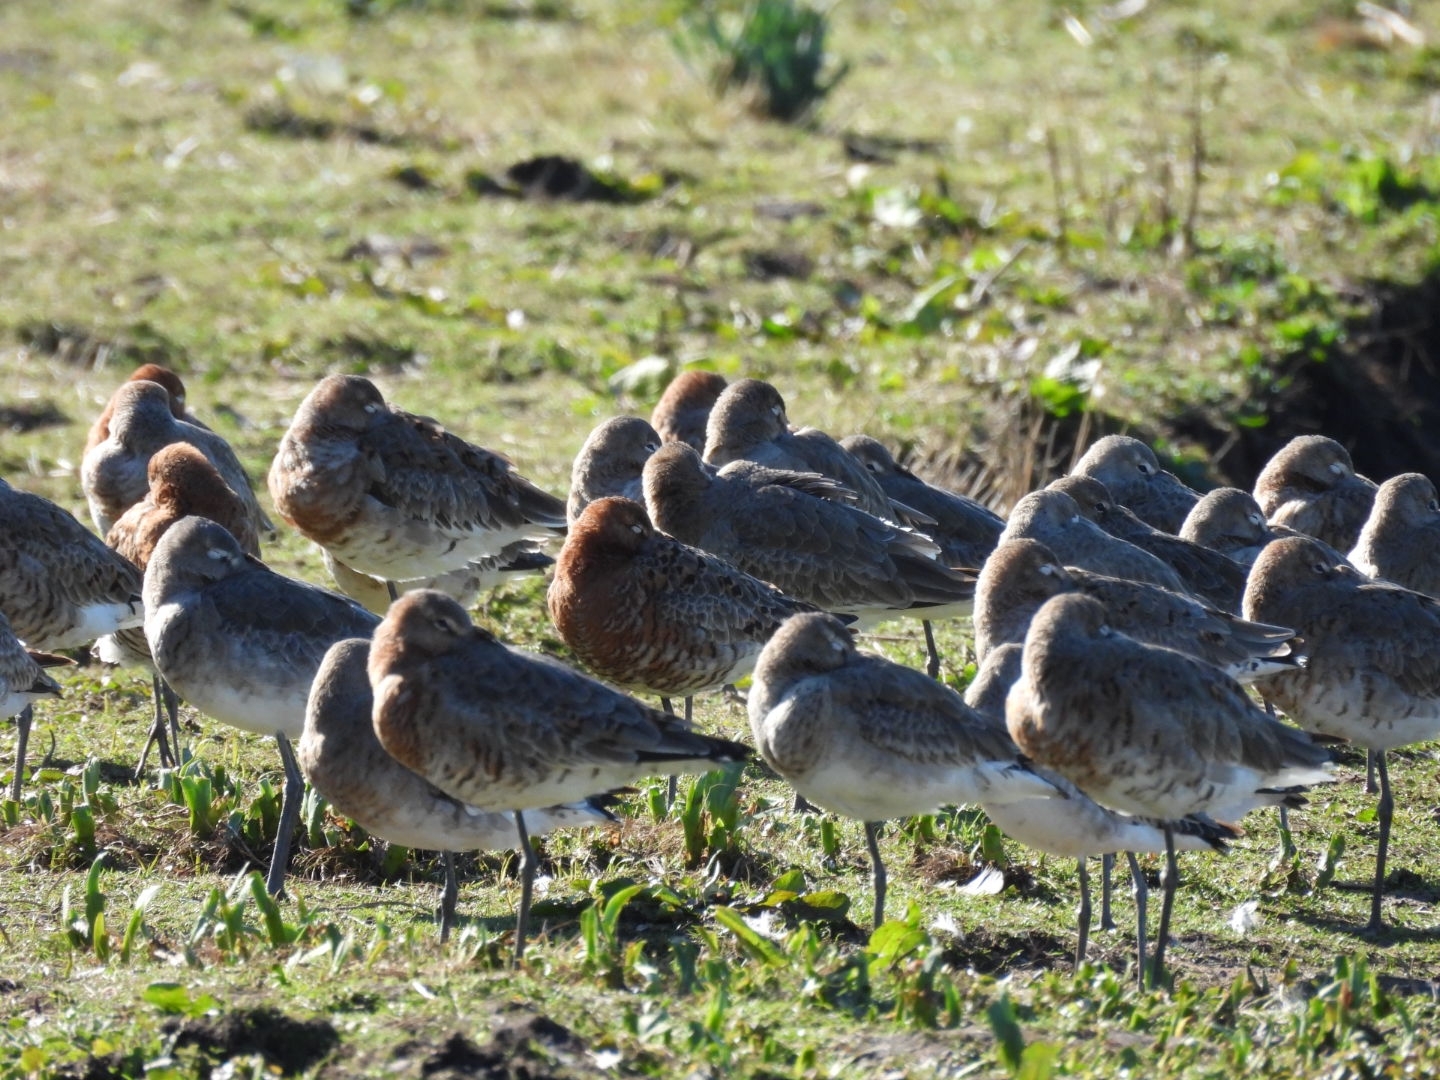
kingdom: Animalia
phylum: Chordata
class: Aves
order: Charadriiformes
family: Scolopacidae
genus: Limosa
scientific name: Limosa limosa
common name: Black-tailed godwit
